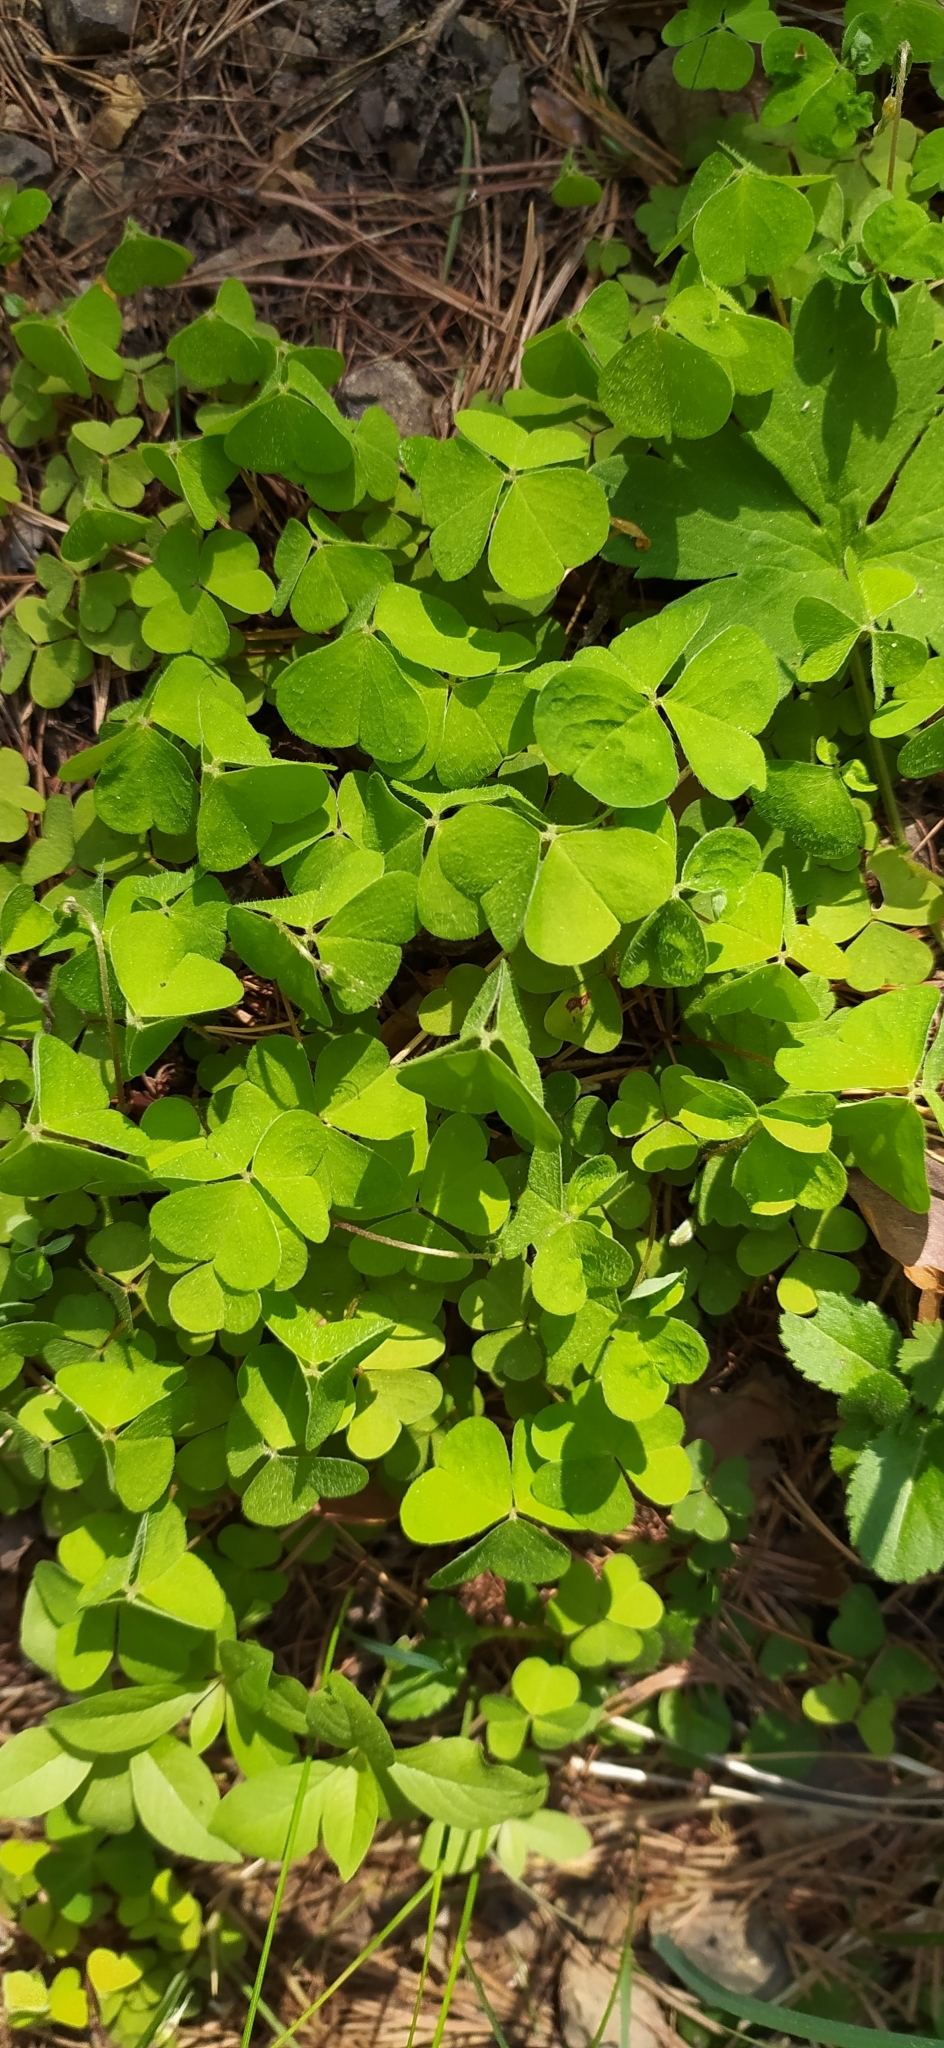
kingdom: Plantae
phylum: Tracheophyta
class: Magnoliopsida
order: Oxalidales
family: Oxalidaceae
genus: Oxalis
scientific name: Oxalis acetosella
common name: Wood-sorrel
